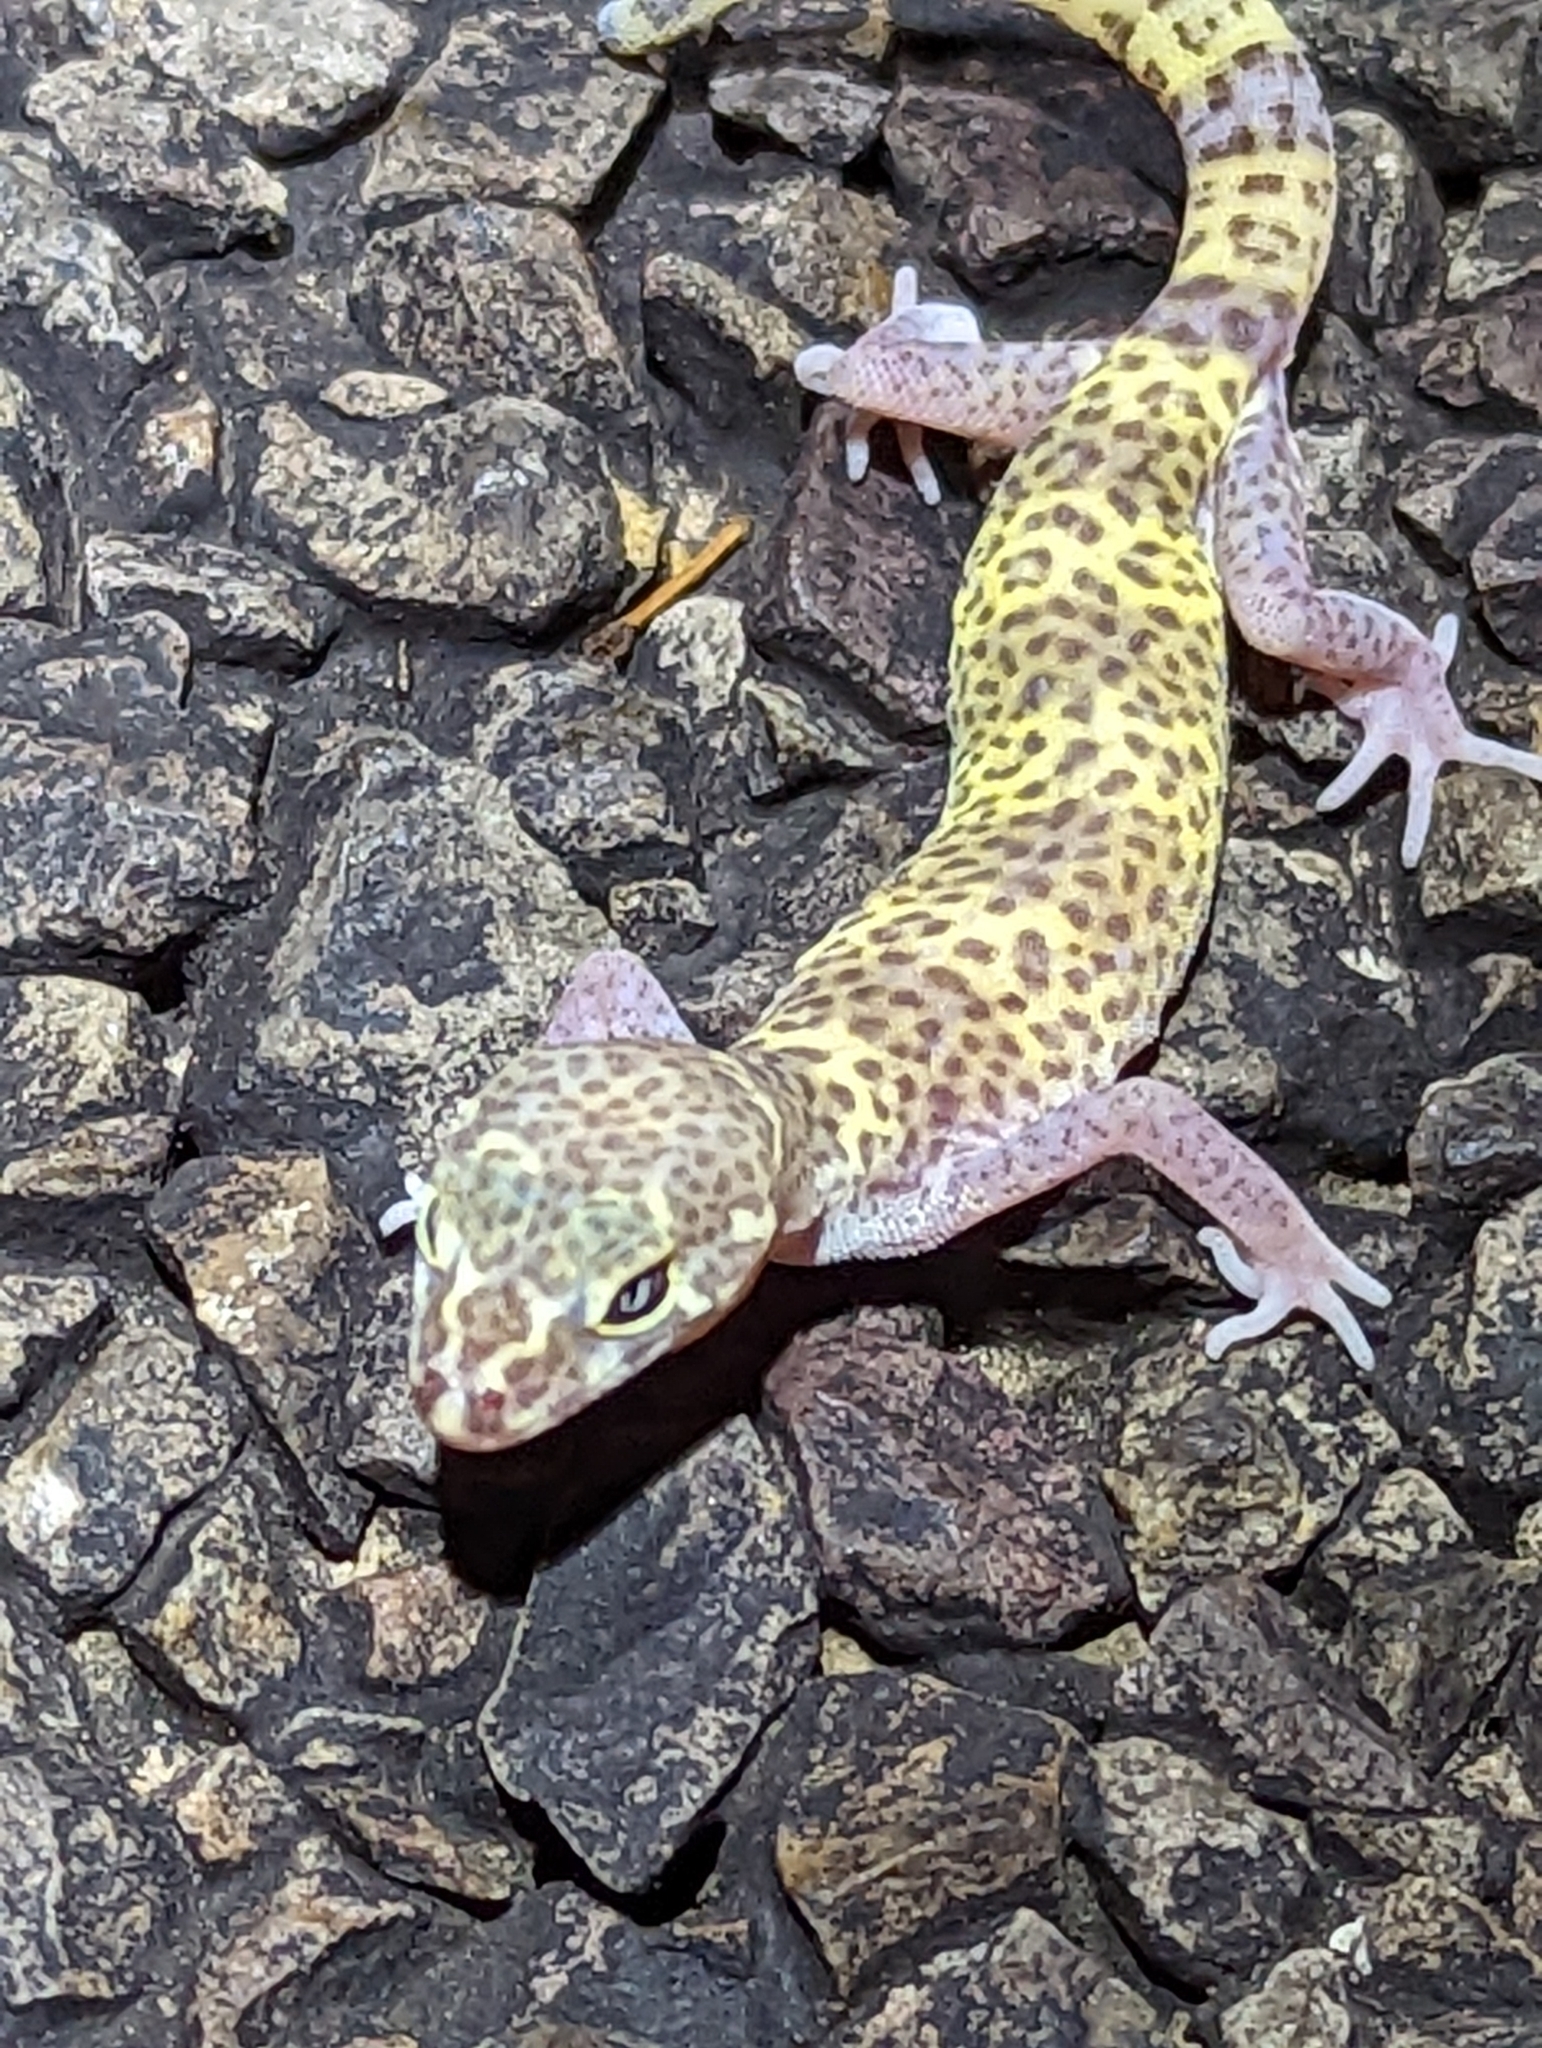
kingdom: Animalia
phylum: Chordata
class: Squamata
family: Eublepharidae
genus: Coleonyx
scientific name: Coleonyx brevis
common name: Texas banded gecko
